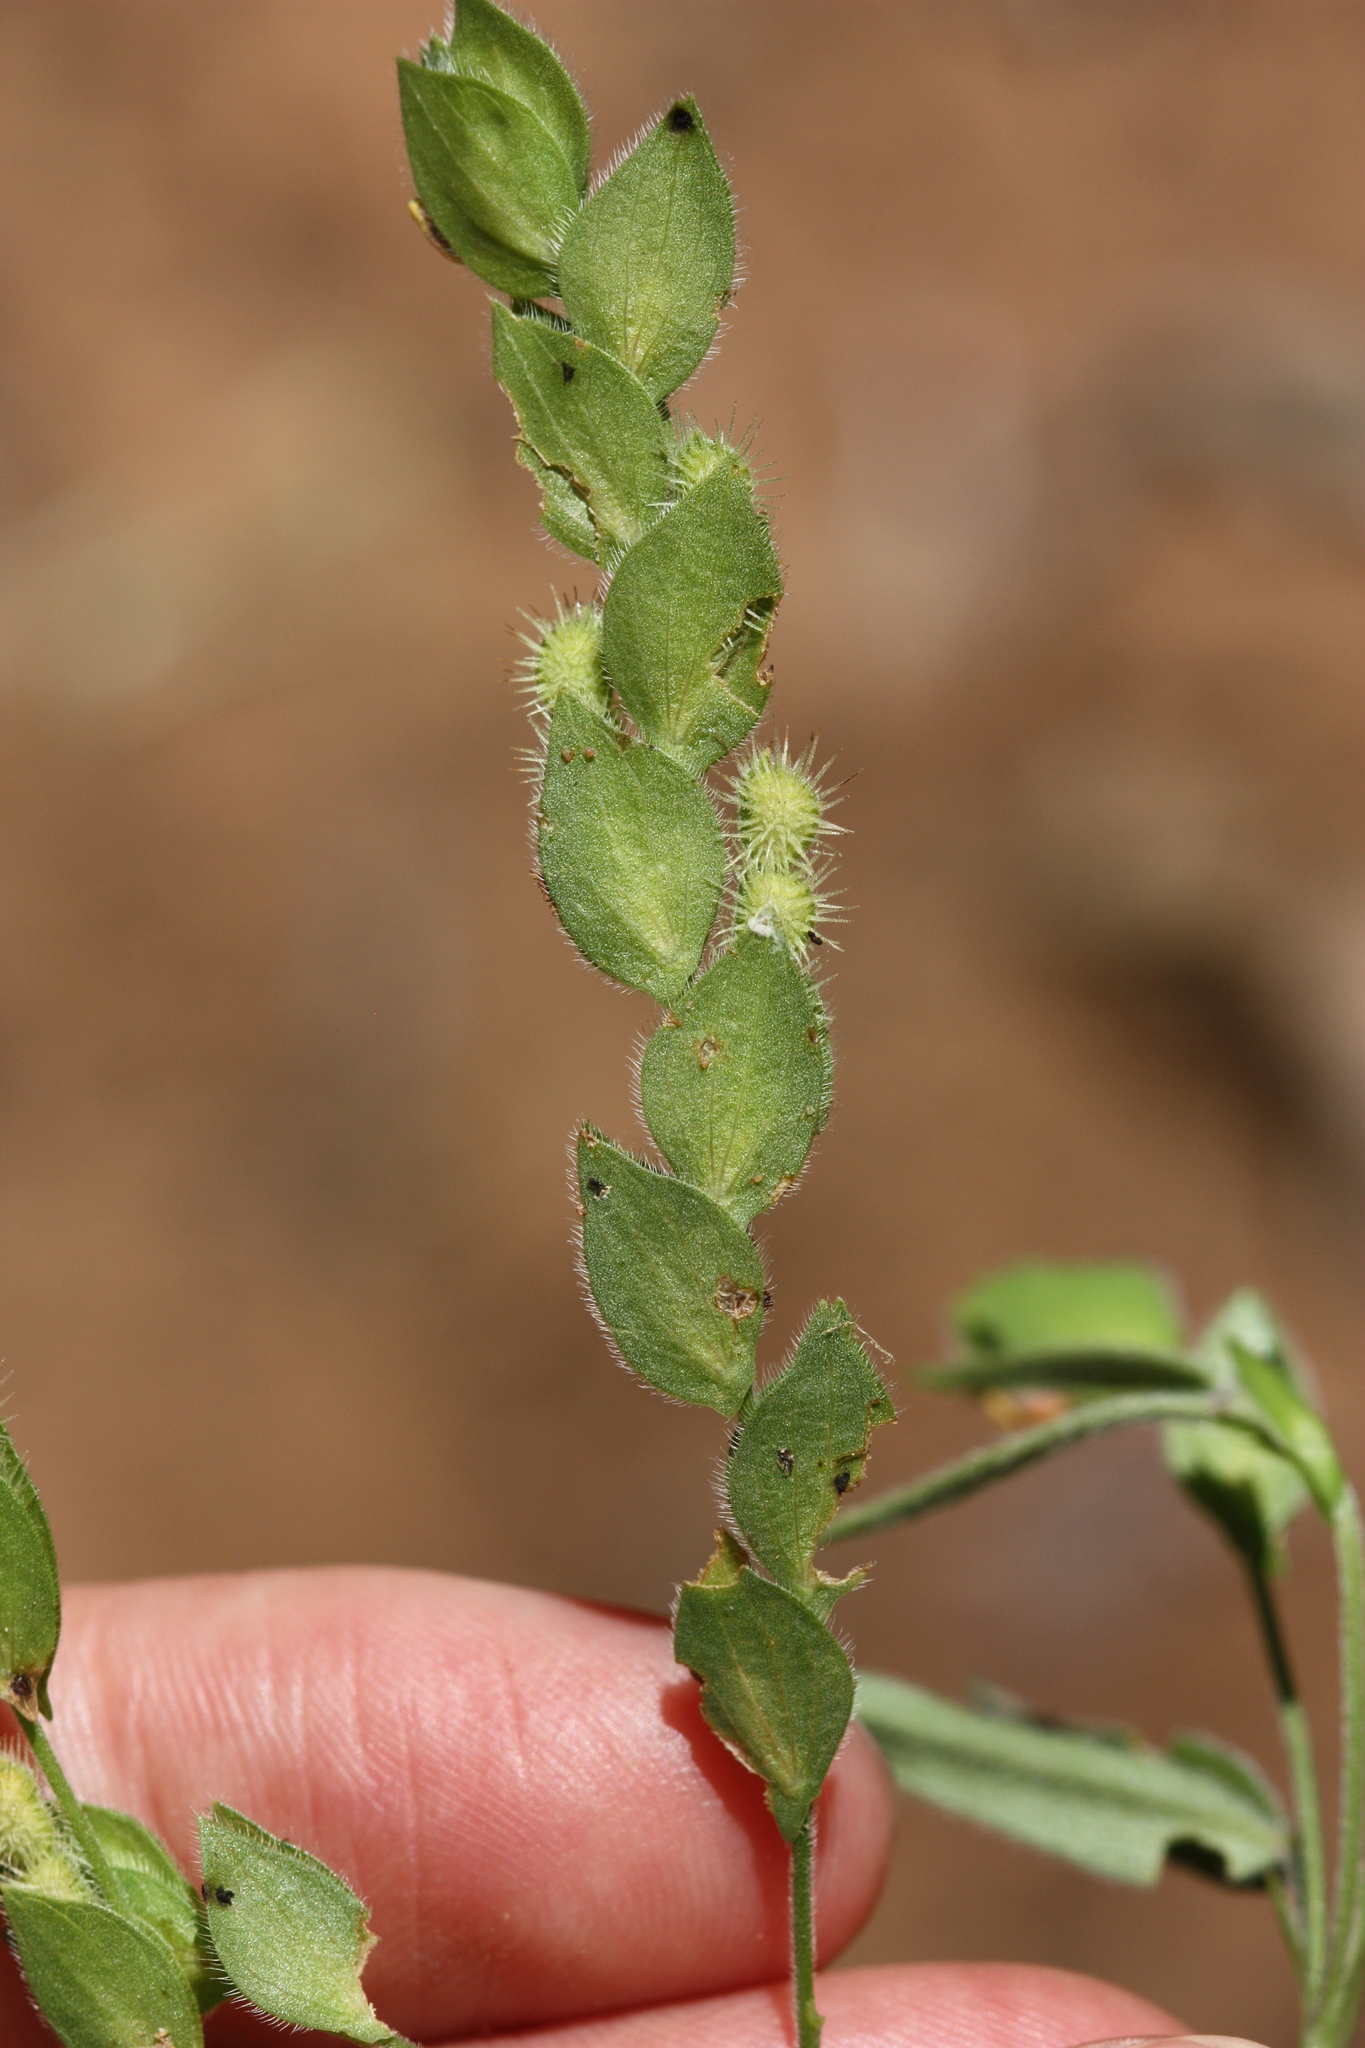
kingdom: Plantae
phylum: Tracheophyta
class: Magnoliopsida
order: Fabales
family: Fabaceae
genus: Zornia
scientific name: Zornia glochidiata
